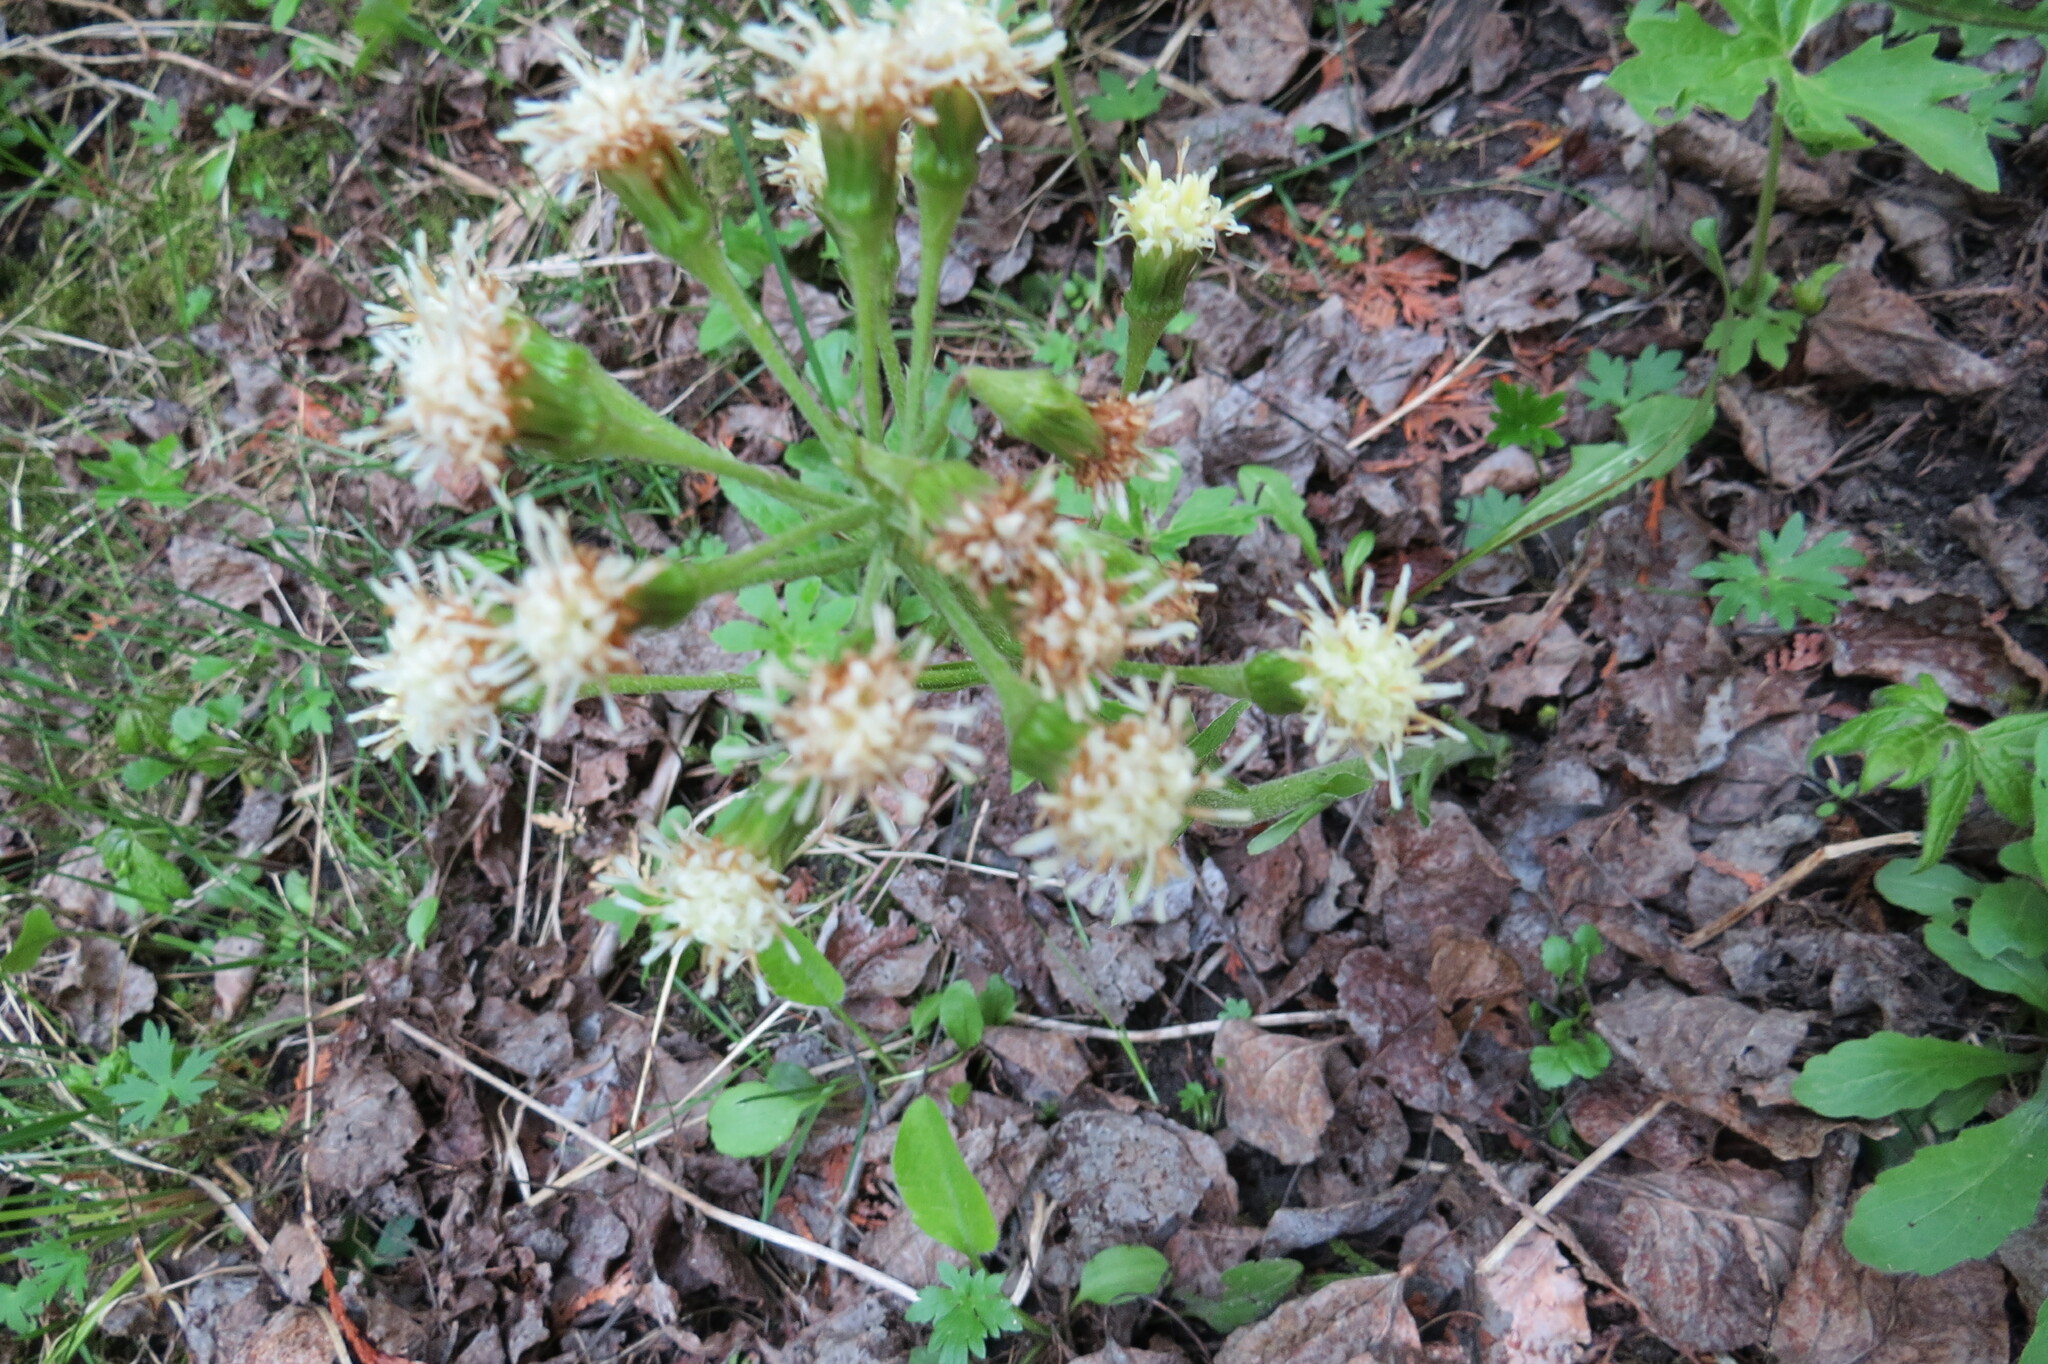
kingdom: Plantae
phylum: Tracheophyta
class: Magnoliopsida
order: Asterales
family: Asteraceae
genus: Petasites
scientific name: Petasites frigidus
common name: Arctic butterbur
